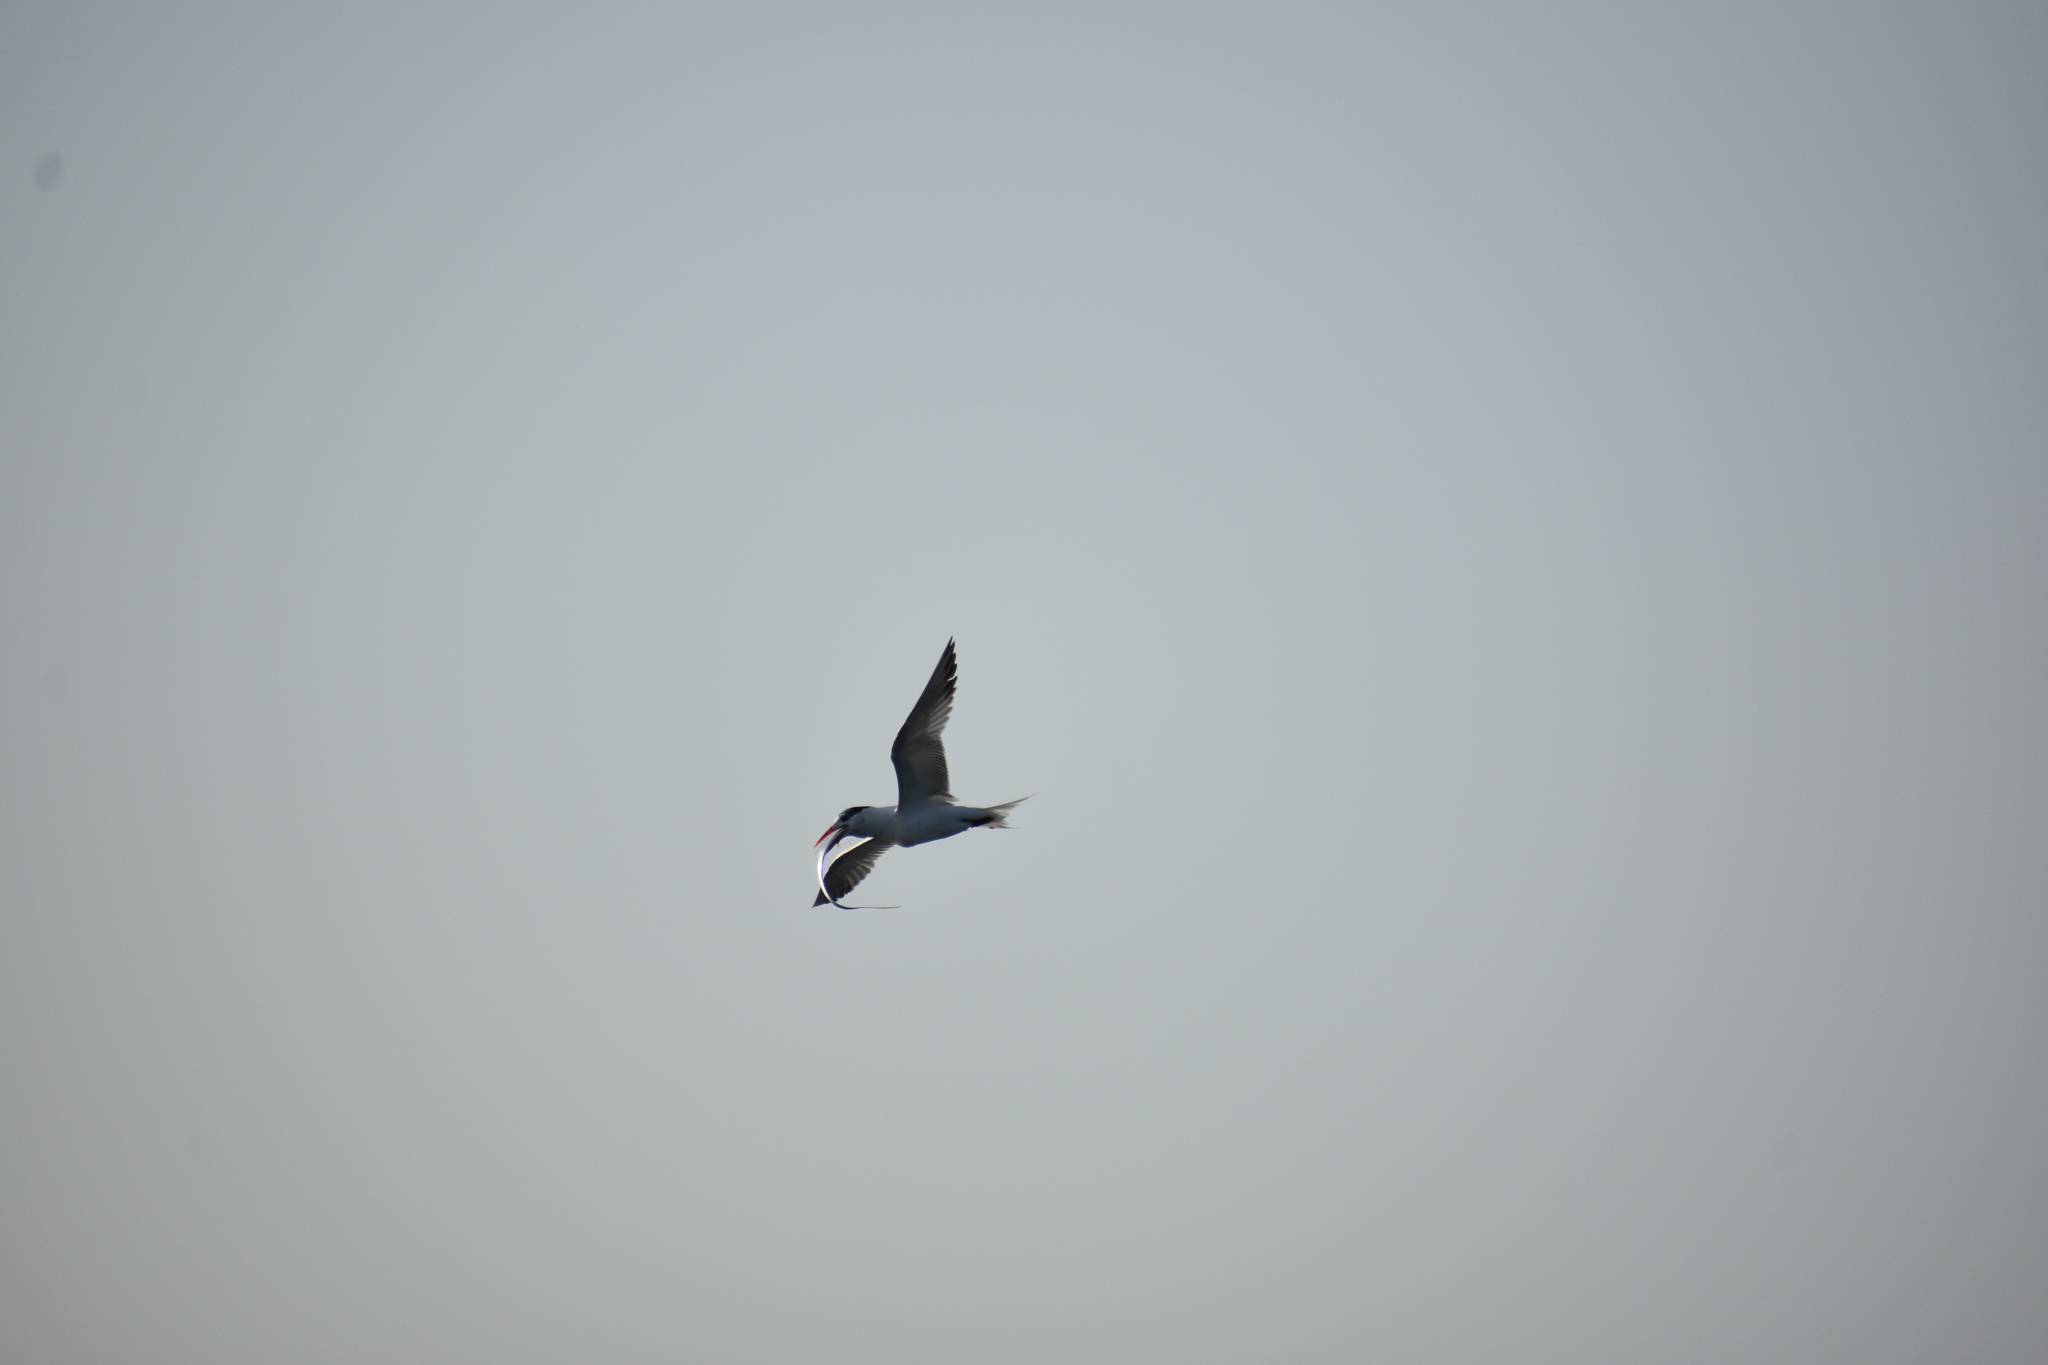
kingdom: Animalia
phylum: Chordata
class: Aves
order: Charadriiformes
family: Laridae
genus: Thalasseus
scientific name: Thalasseus maximus
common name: Royal tern
